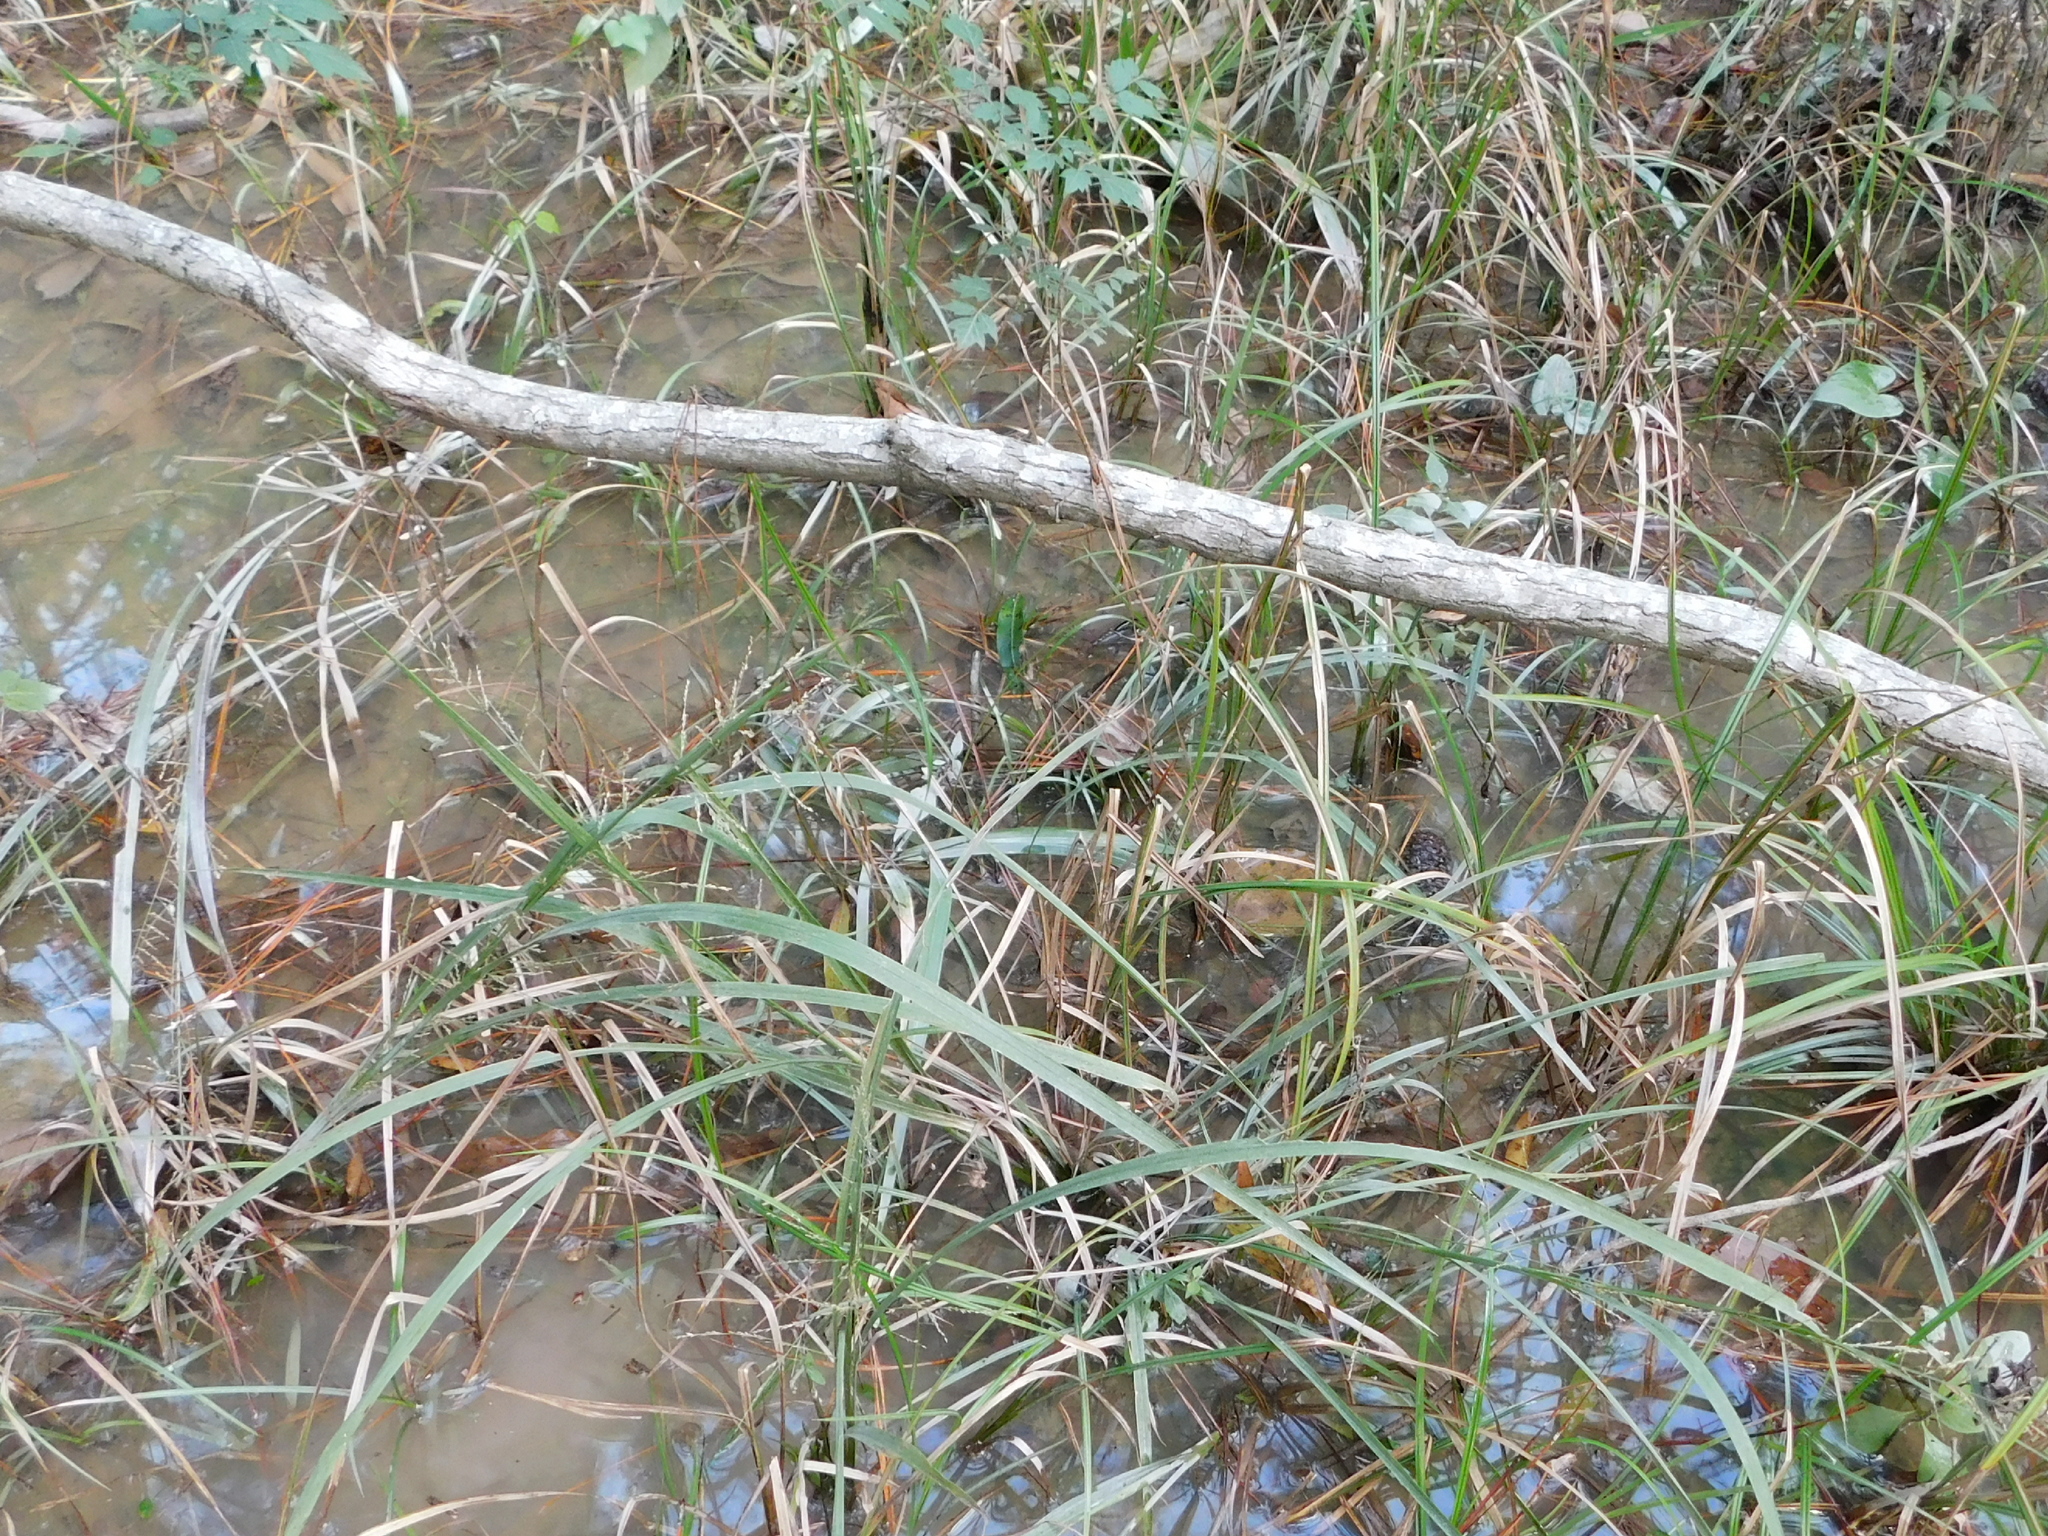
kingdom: Plantae
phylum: Tracheophyta
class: Liliopsida
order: Poales
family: Poaceae
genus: Coleataenia
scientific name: Coleataenia rigidula
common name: Redtop panicgrass
